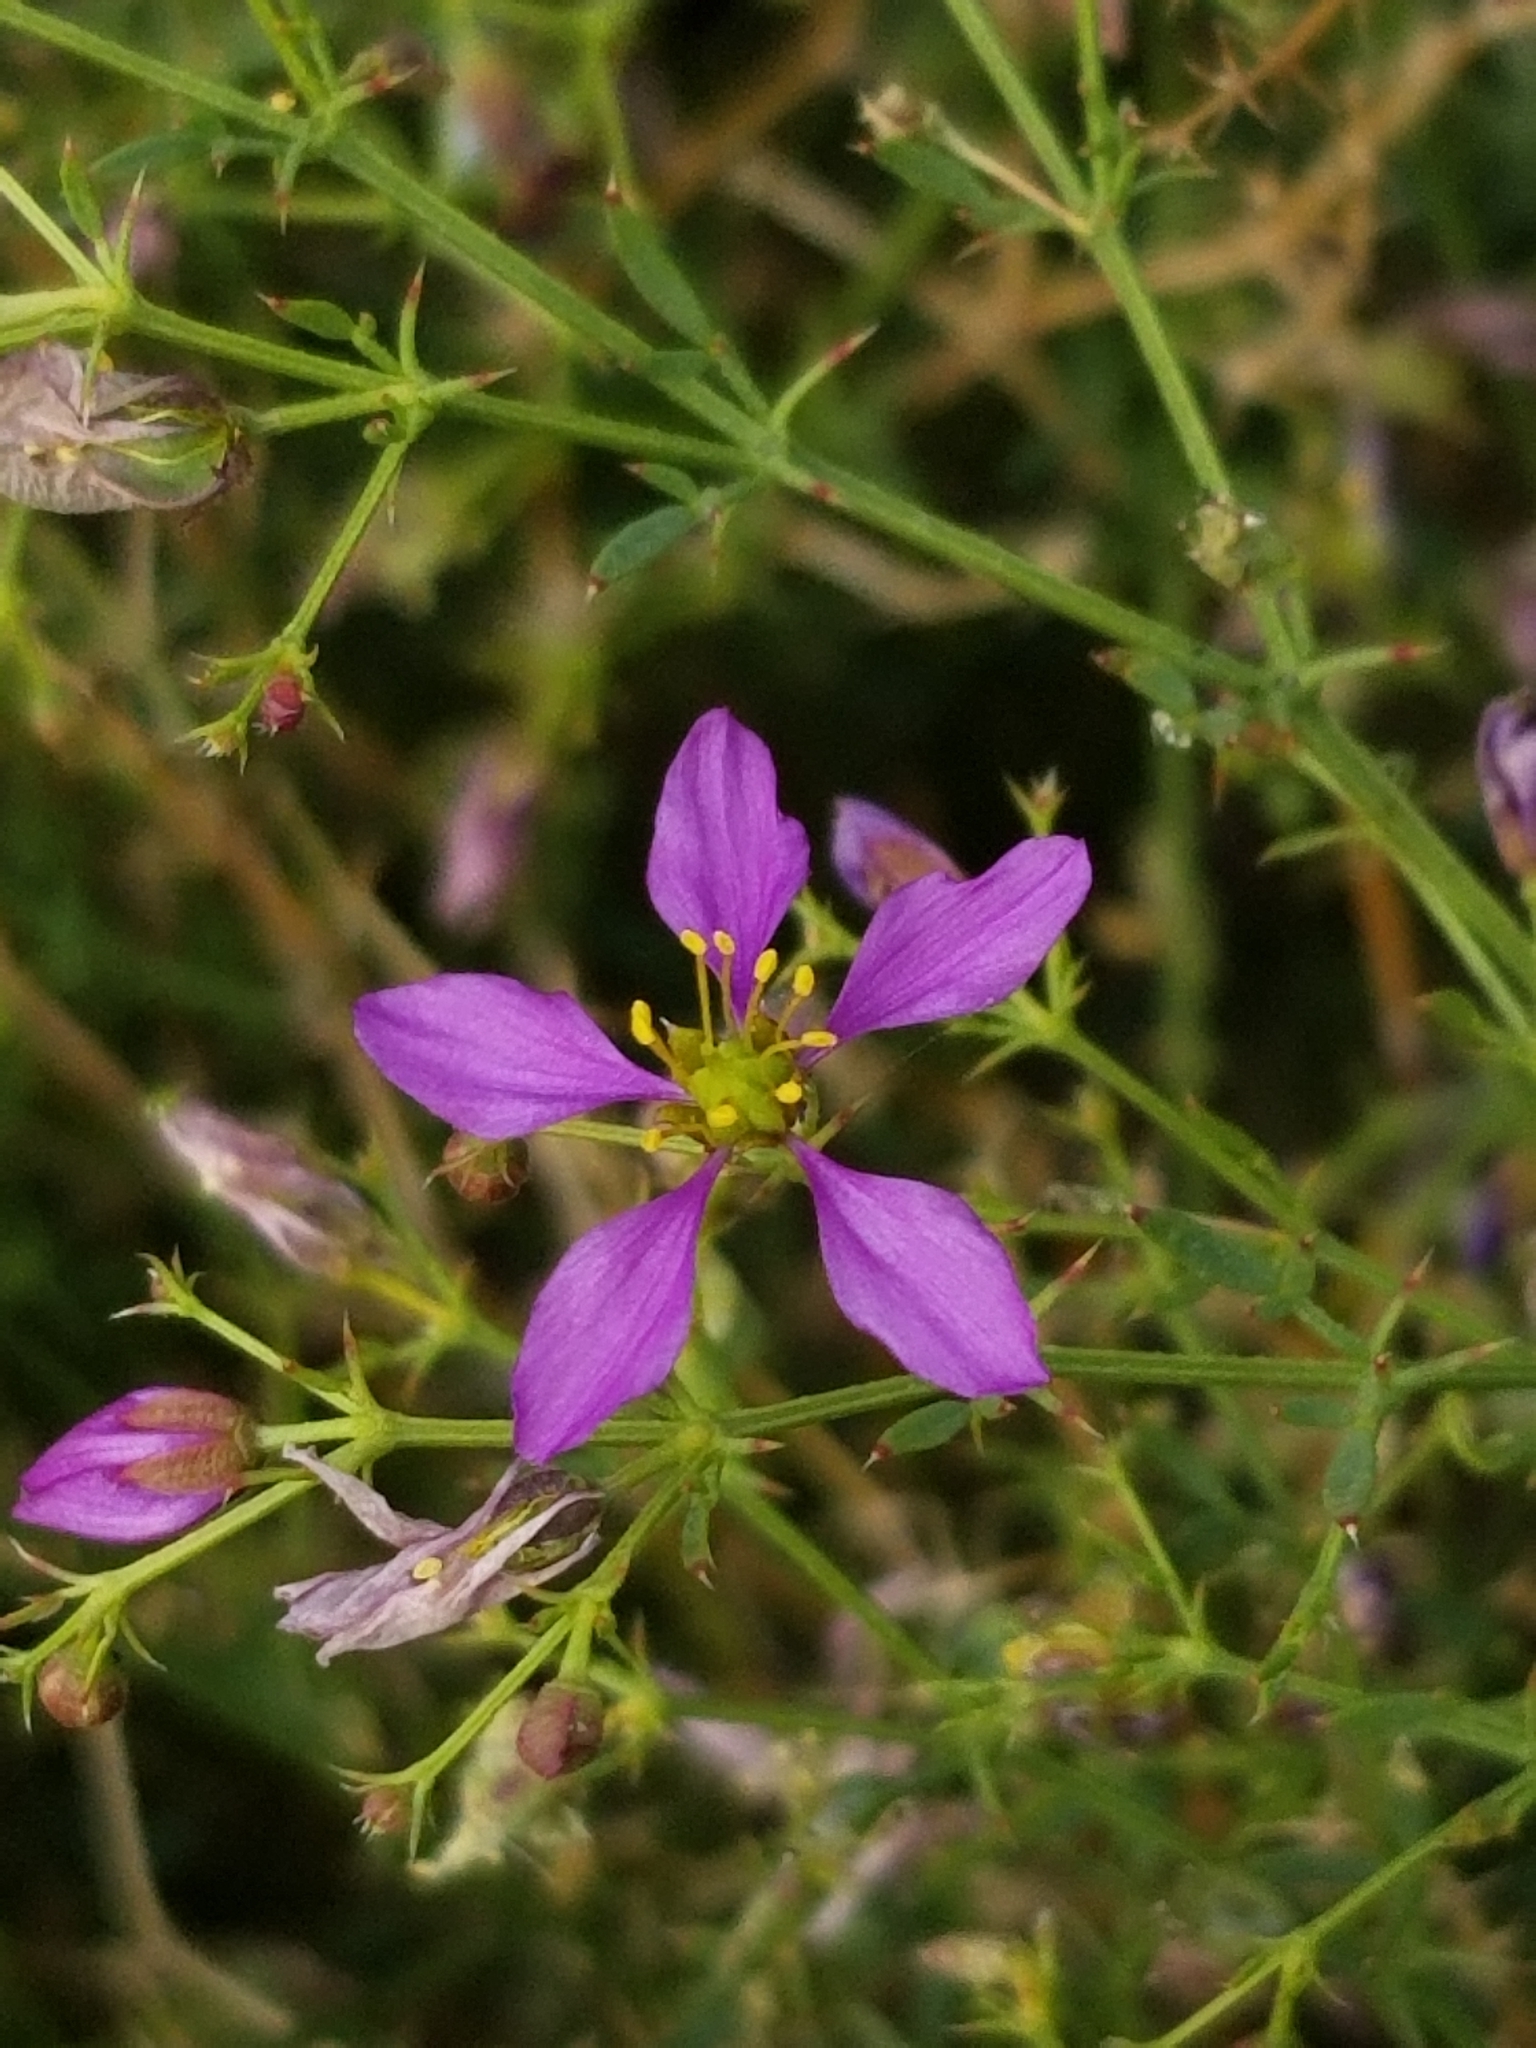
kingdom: Plantae
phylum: Tracheophyta
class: Magnoliopsida
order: Zygophyllales
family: Zygophyllaceae
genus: Fagonia
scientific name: Fagonia laevis
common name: California fagonbush
